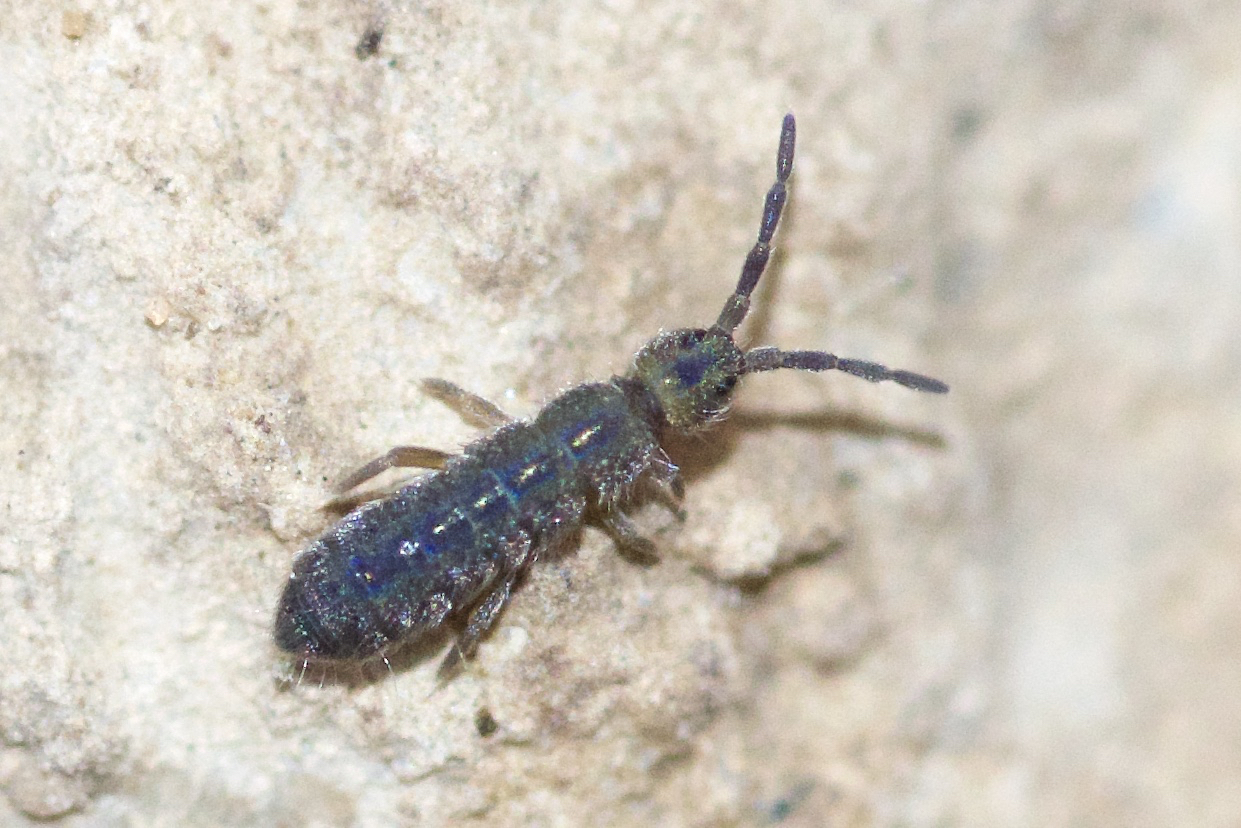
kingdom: Animalia
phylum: Arthropoda
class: Collembola
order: Entomobryomorpha
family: Isotomidae
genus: Isotoma
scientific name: Isotoma viridis
